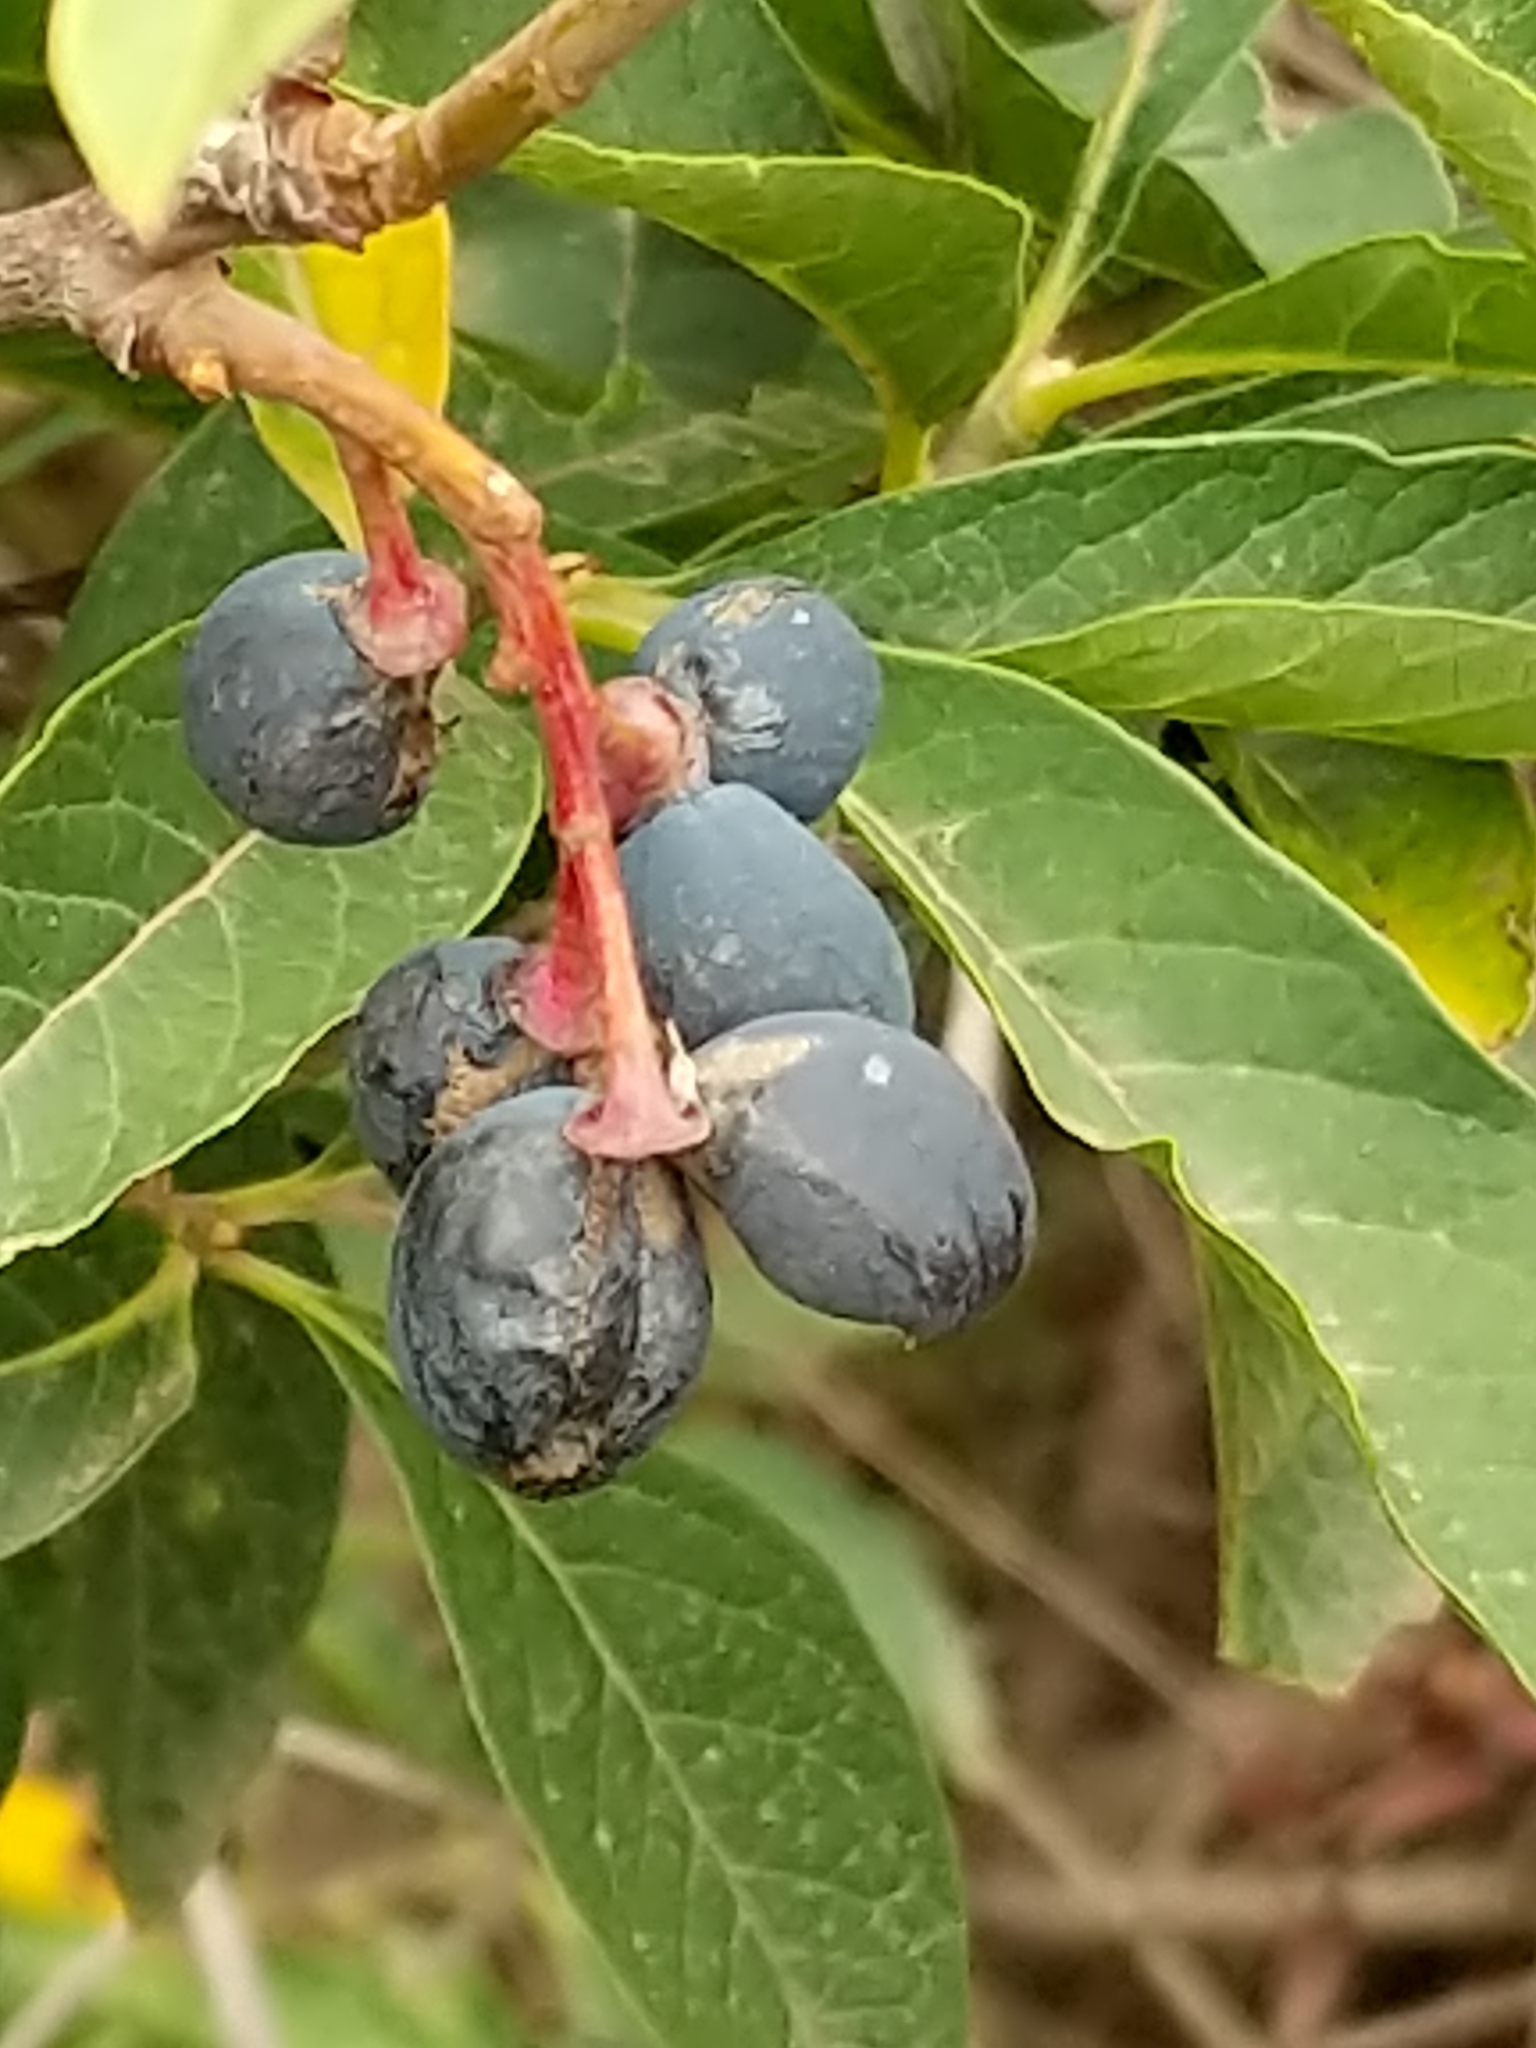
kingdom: Plantae
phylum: Tracheophyta
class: Magnoliopsida
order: Rosales
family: Rosaceae
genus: Oemleria
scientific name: Oemleria cerasiformis
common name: Osoberry
